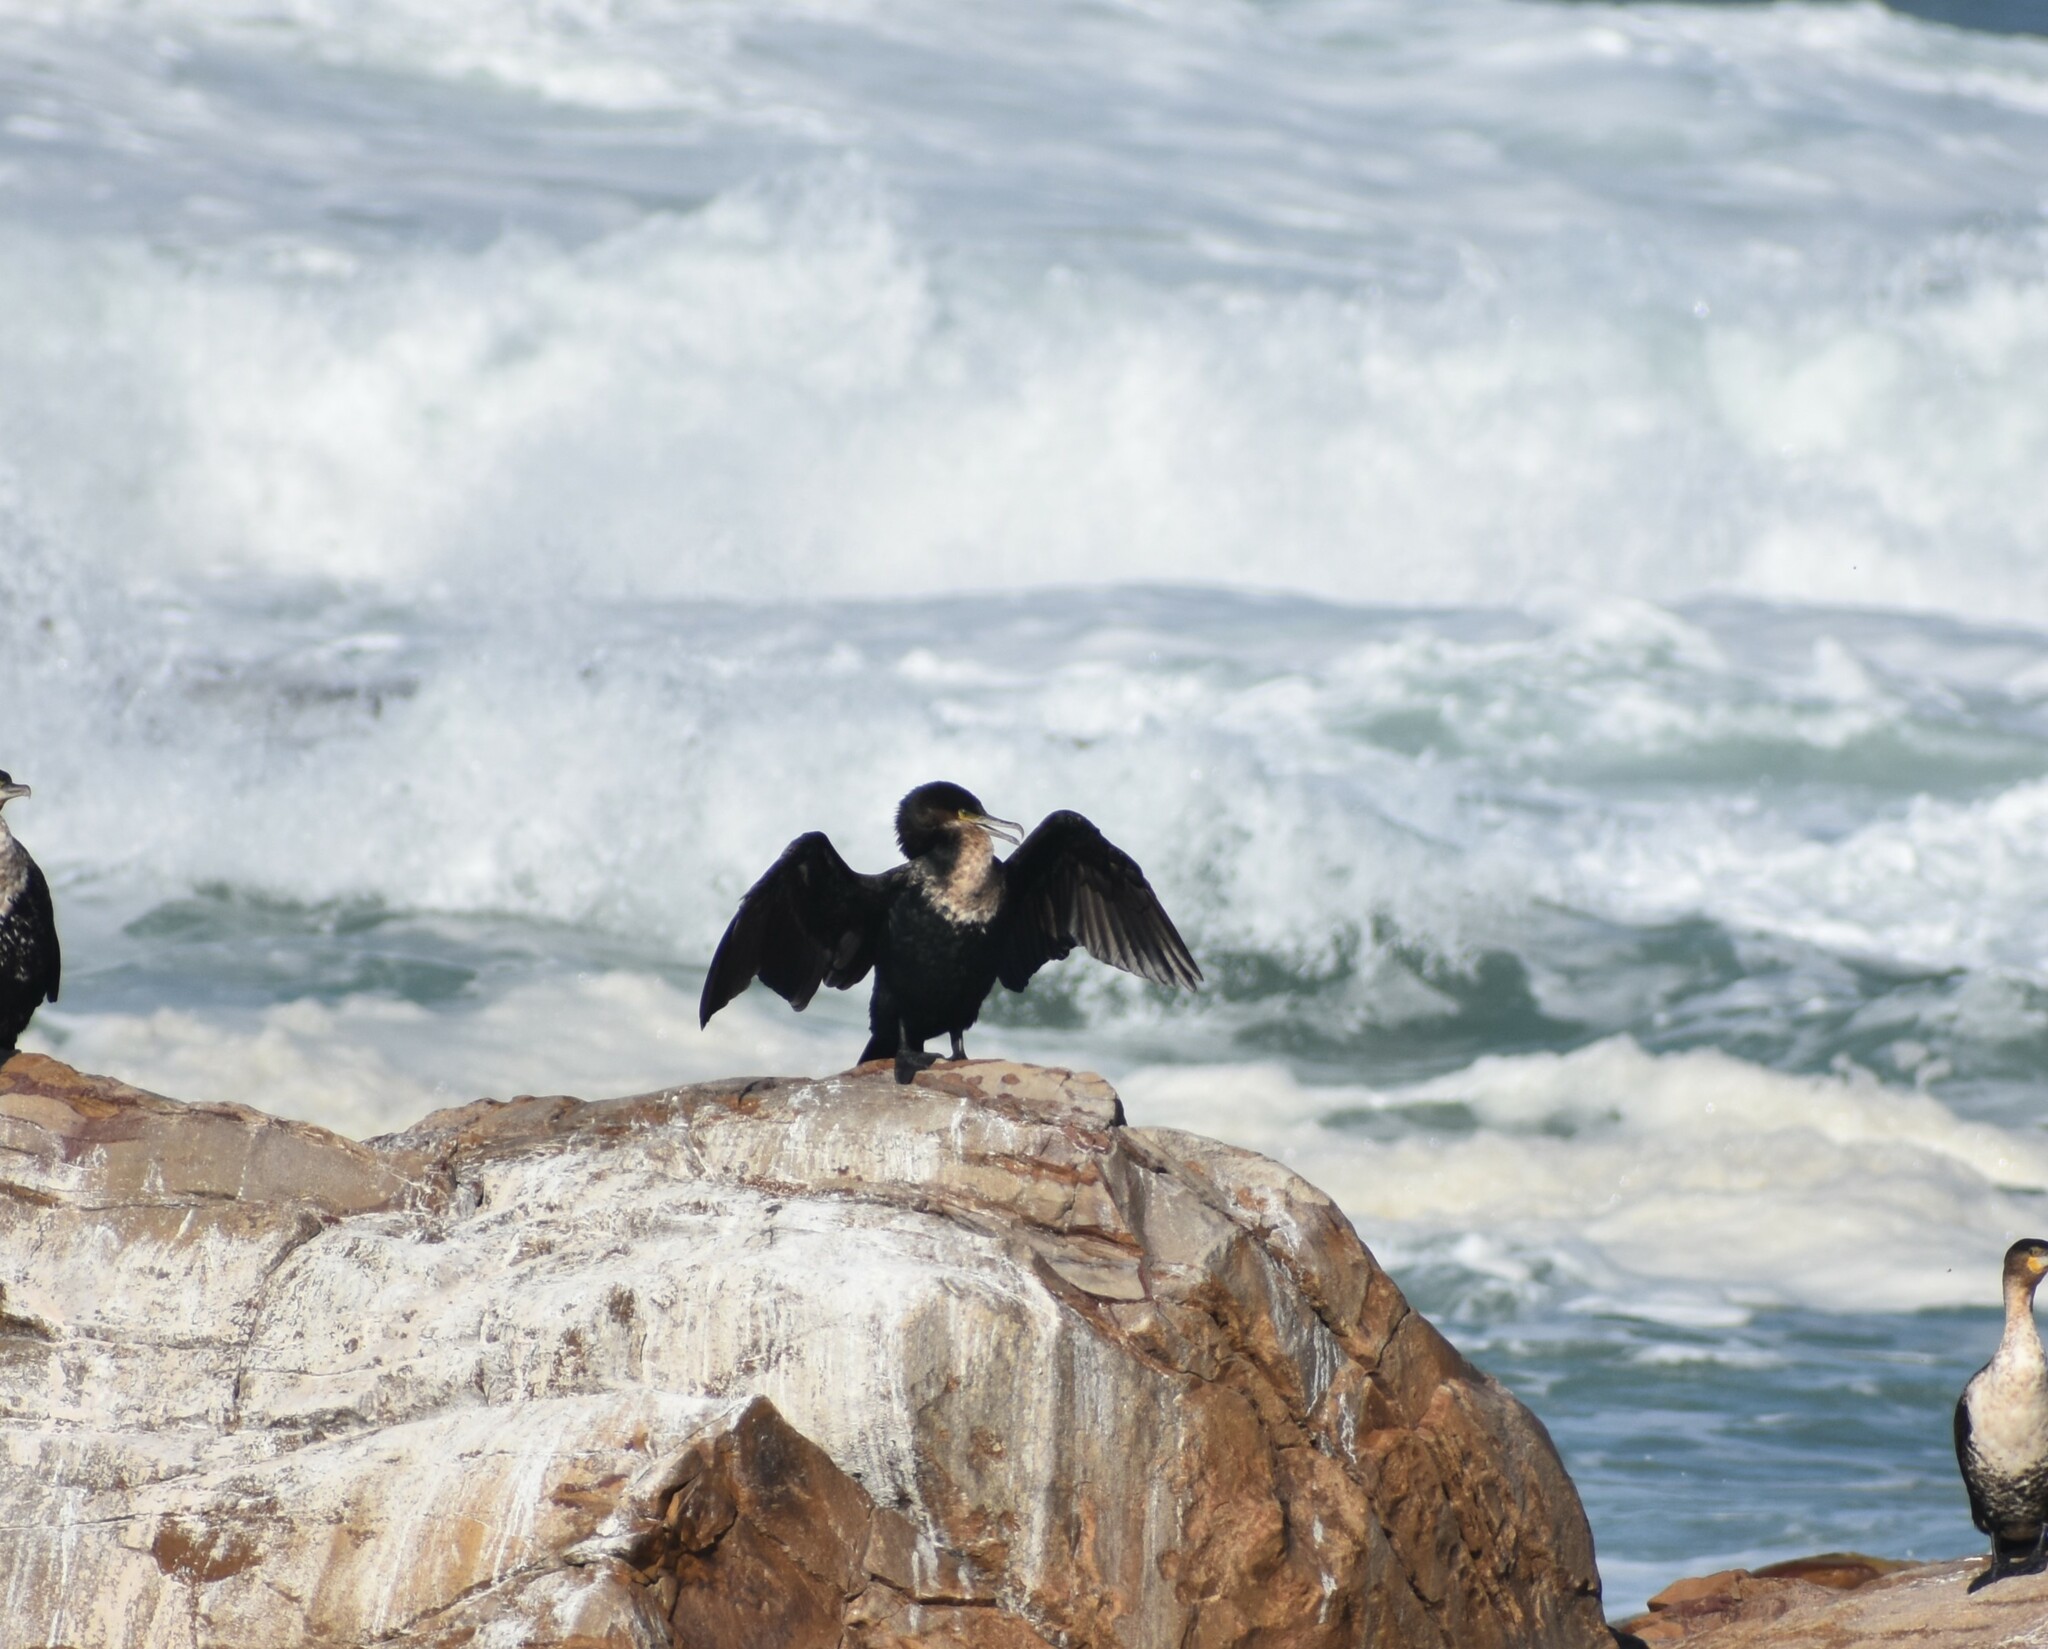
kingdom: Animalia
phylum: Chordata
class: Aves
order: Suliformes
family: Phalacrocoracidae
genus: Phalacrocorax
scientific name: Phalacrocorax carbo
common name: Great cormorant
